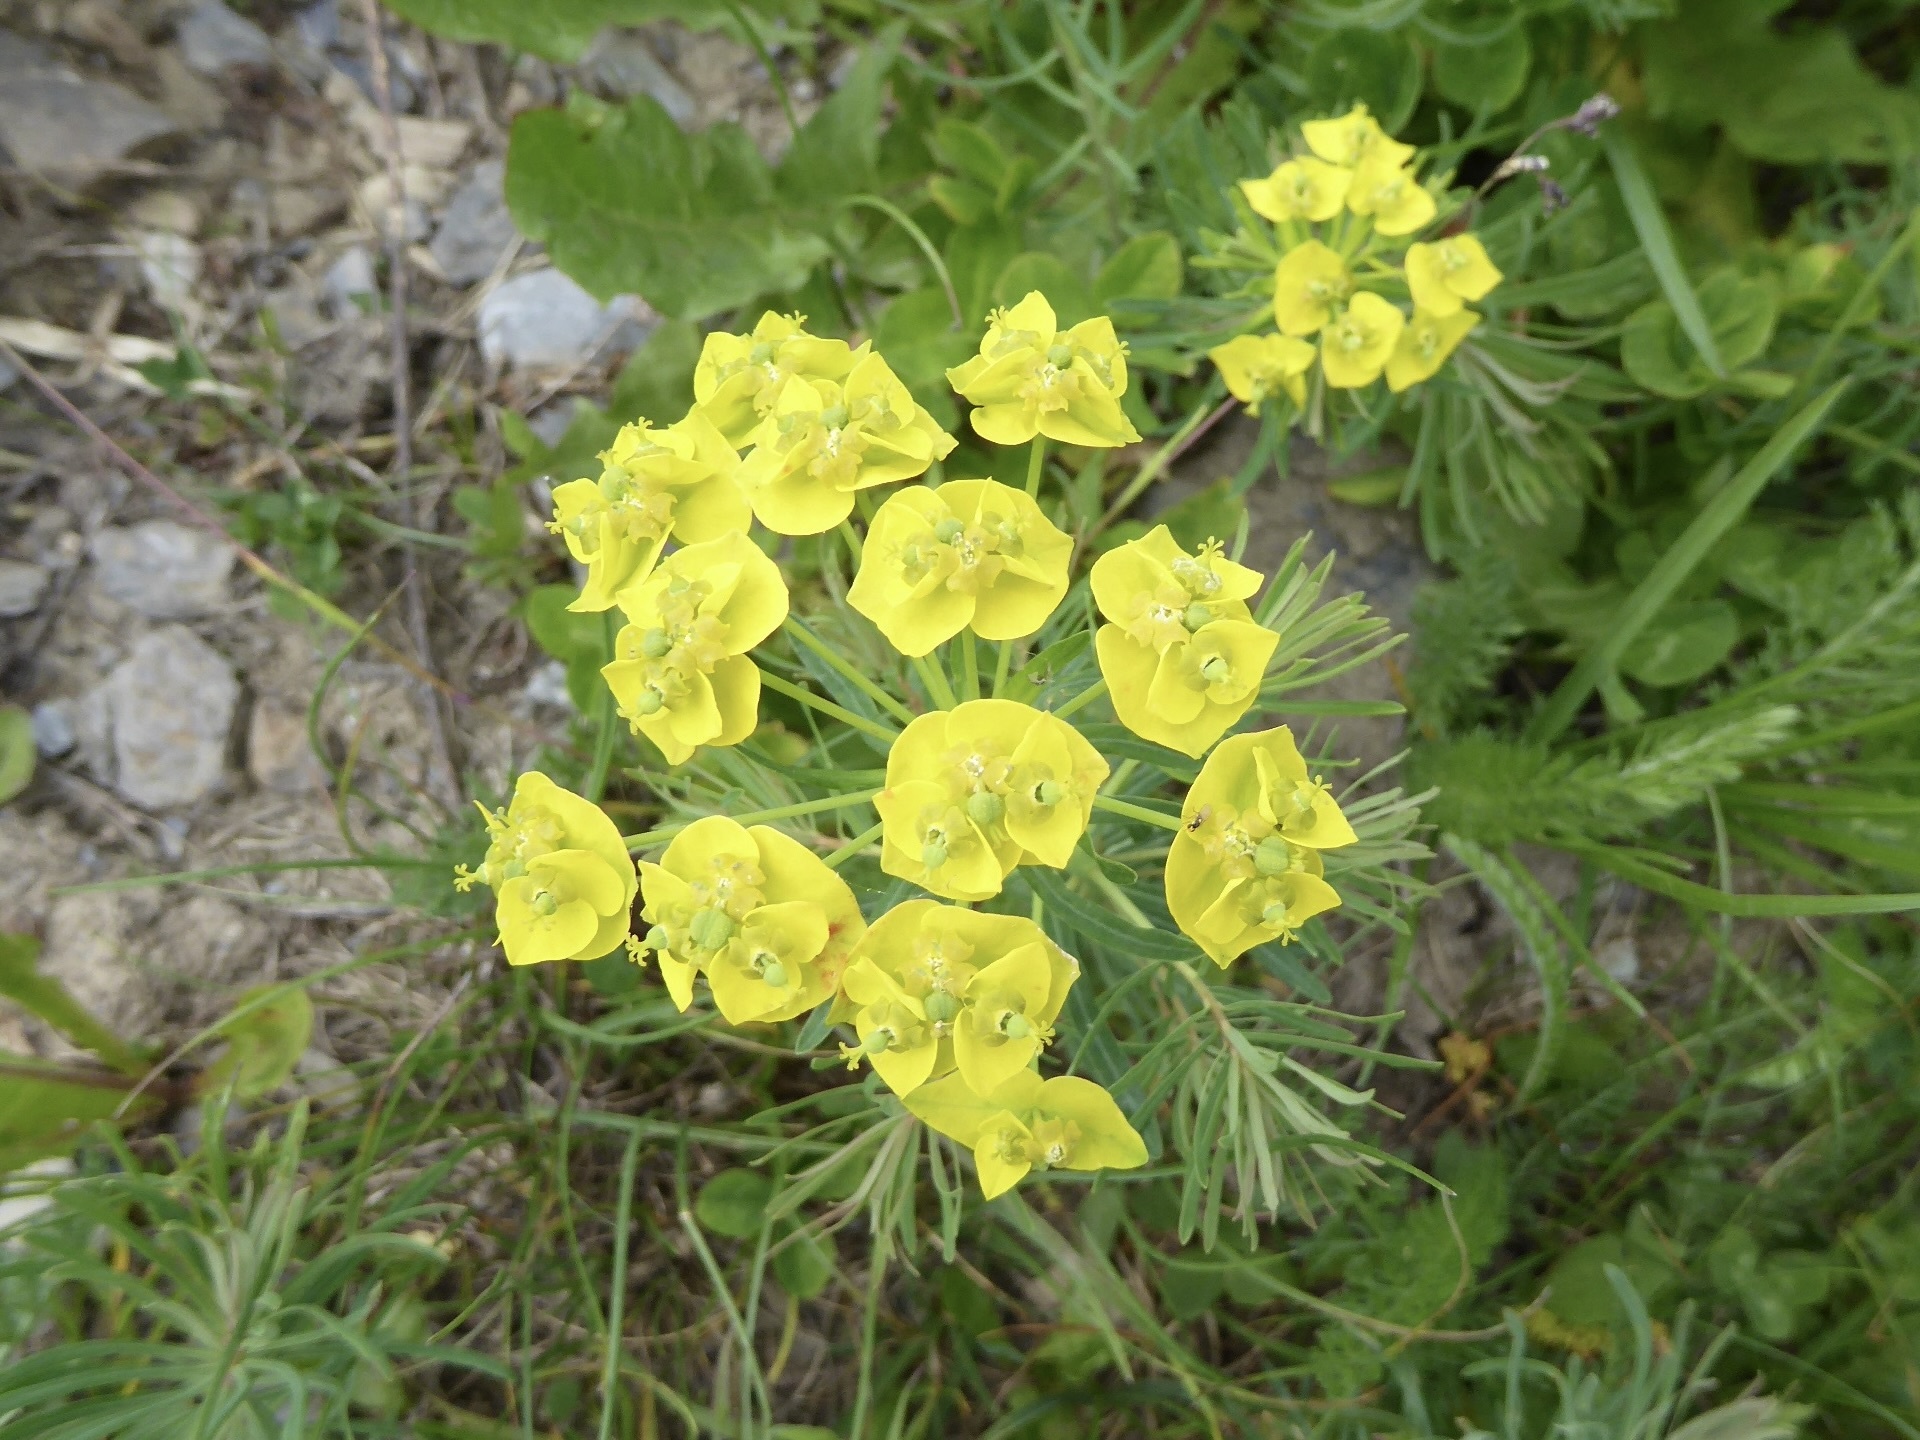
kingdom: Plantae
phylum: Tracheophyta
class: Magnoliopsida
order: Malpighiales
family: Euphorbiaceae
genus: Euphorbia
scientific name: Euphorbia cyparissias
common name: Cypress spurge
